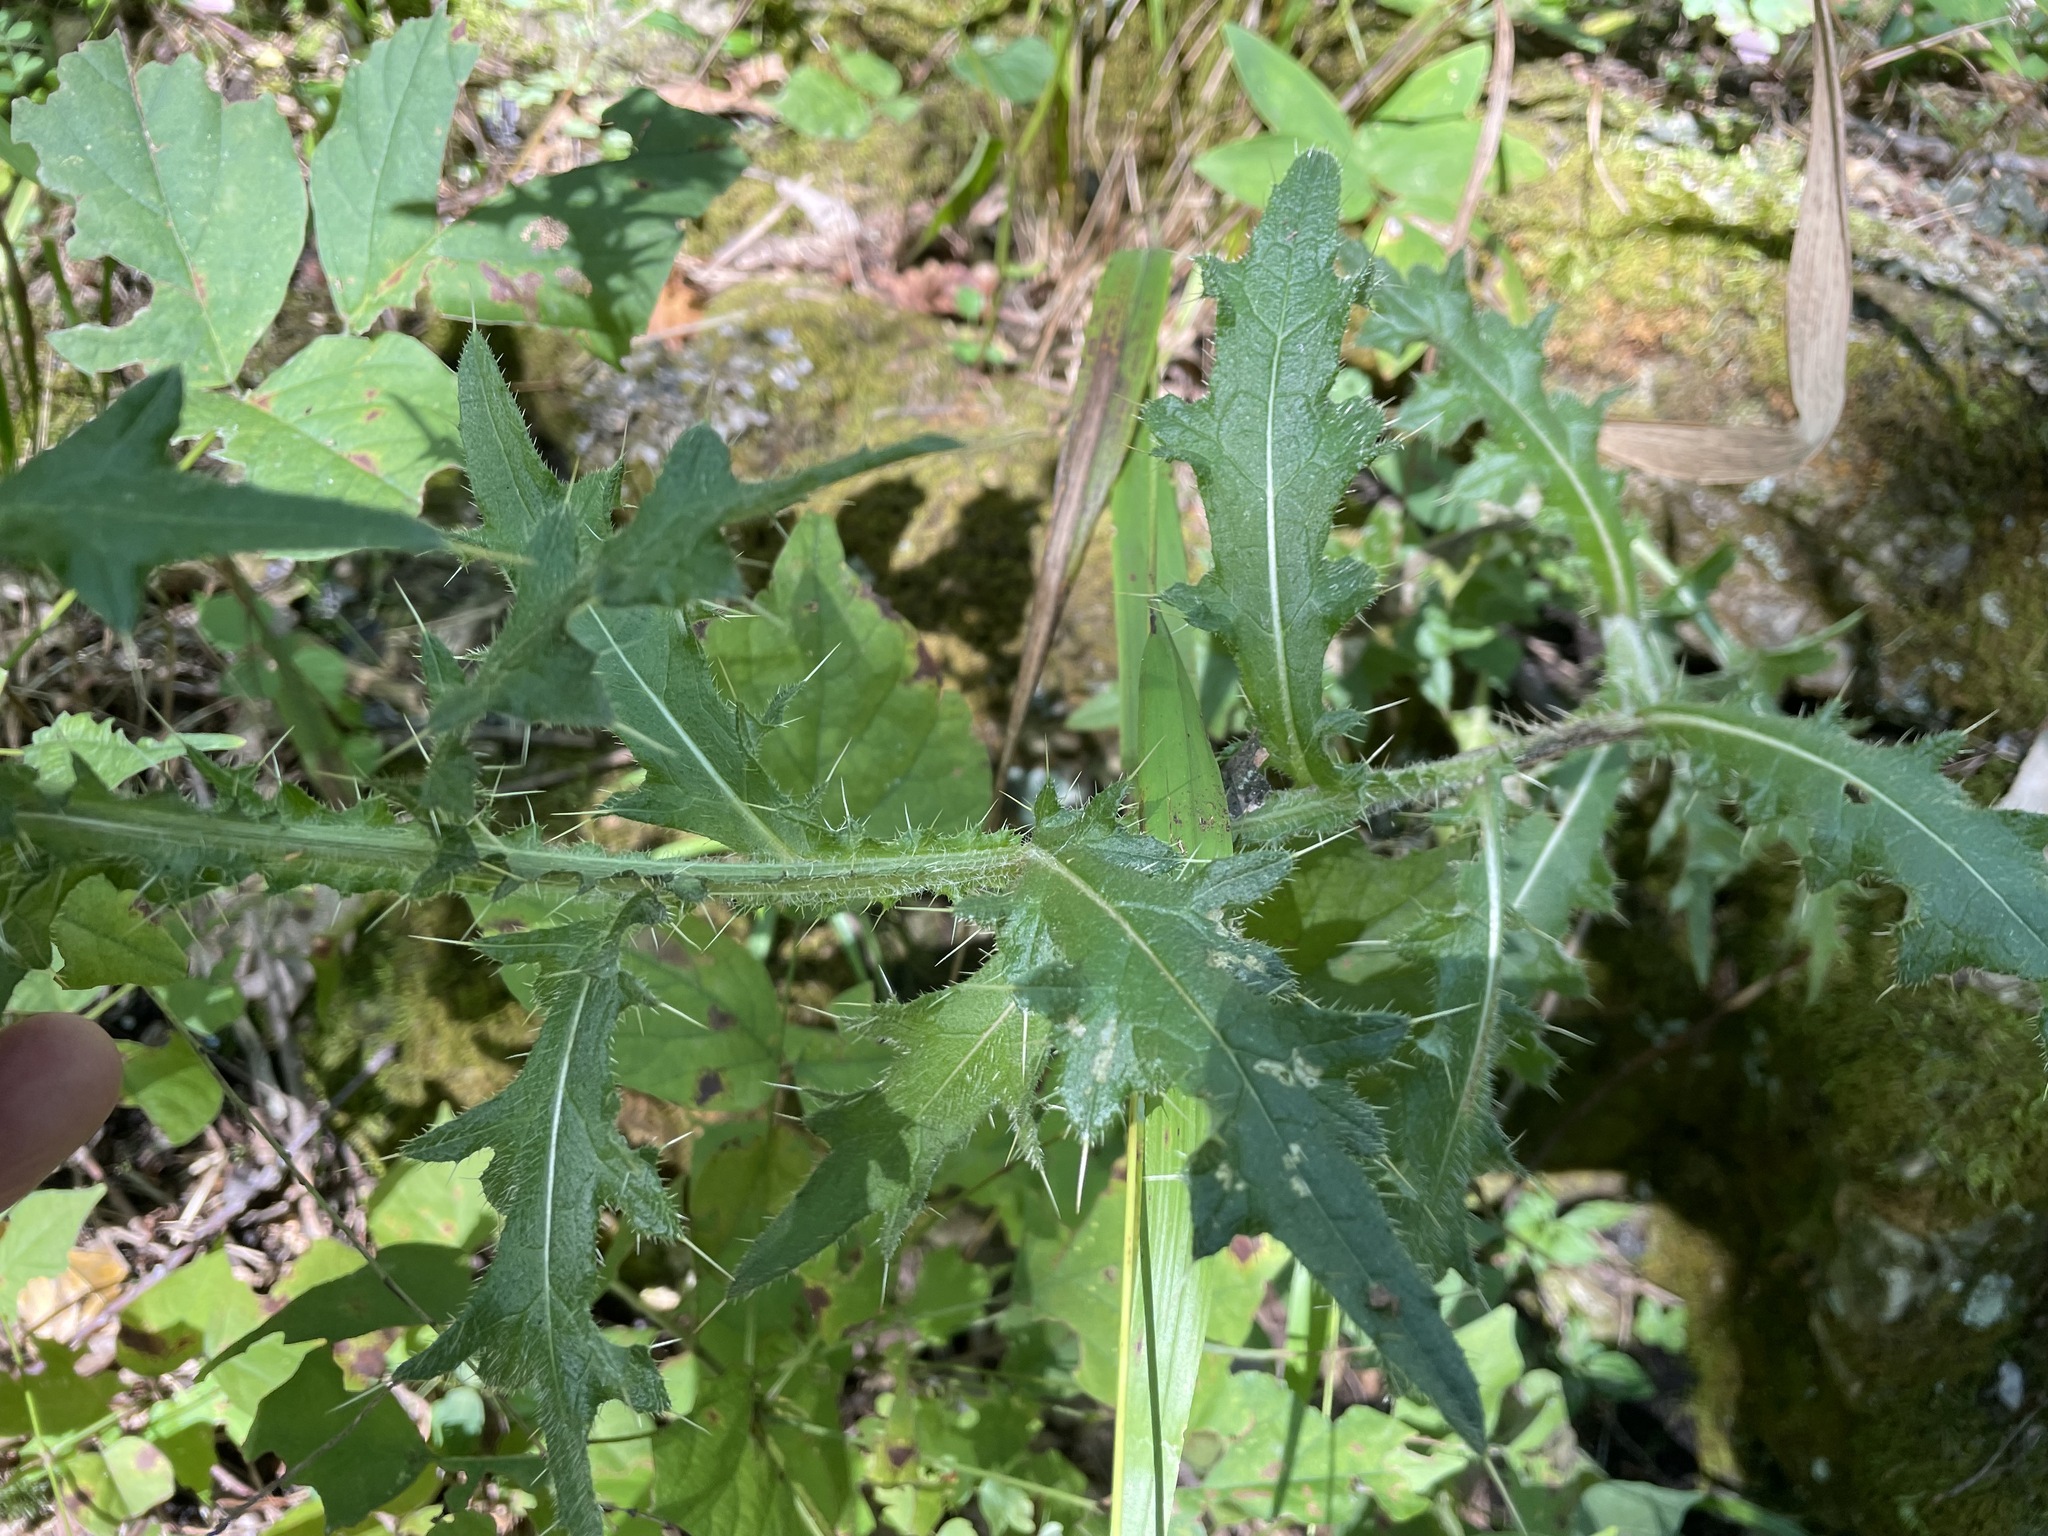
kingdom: Plantae
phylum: Tracheophyta
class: Magnoliopsida
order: Asterales
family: Asteraceae
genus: Cirsium
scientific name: Cirsium vulgare
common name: Bull thistle
